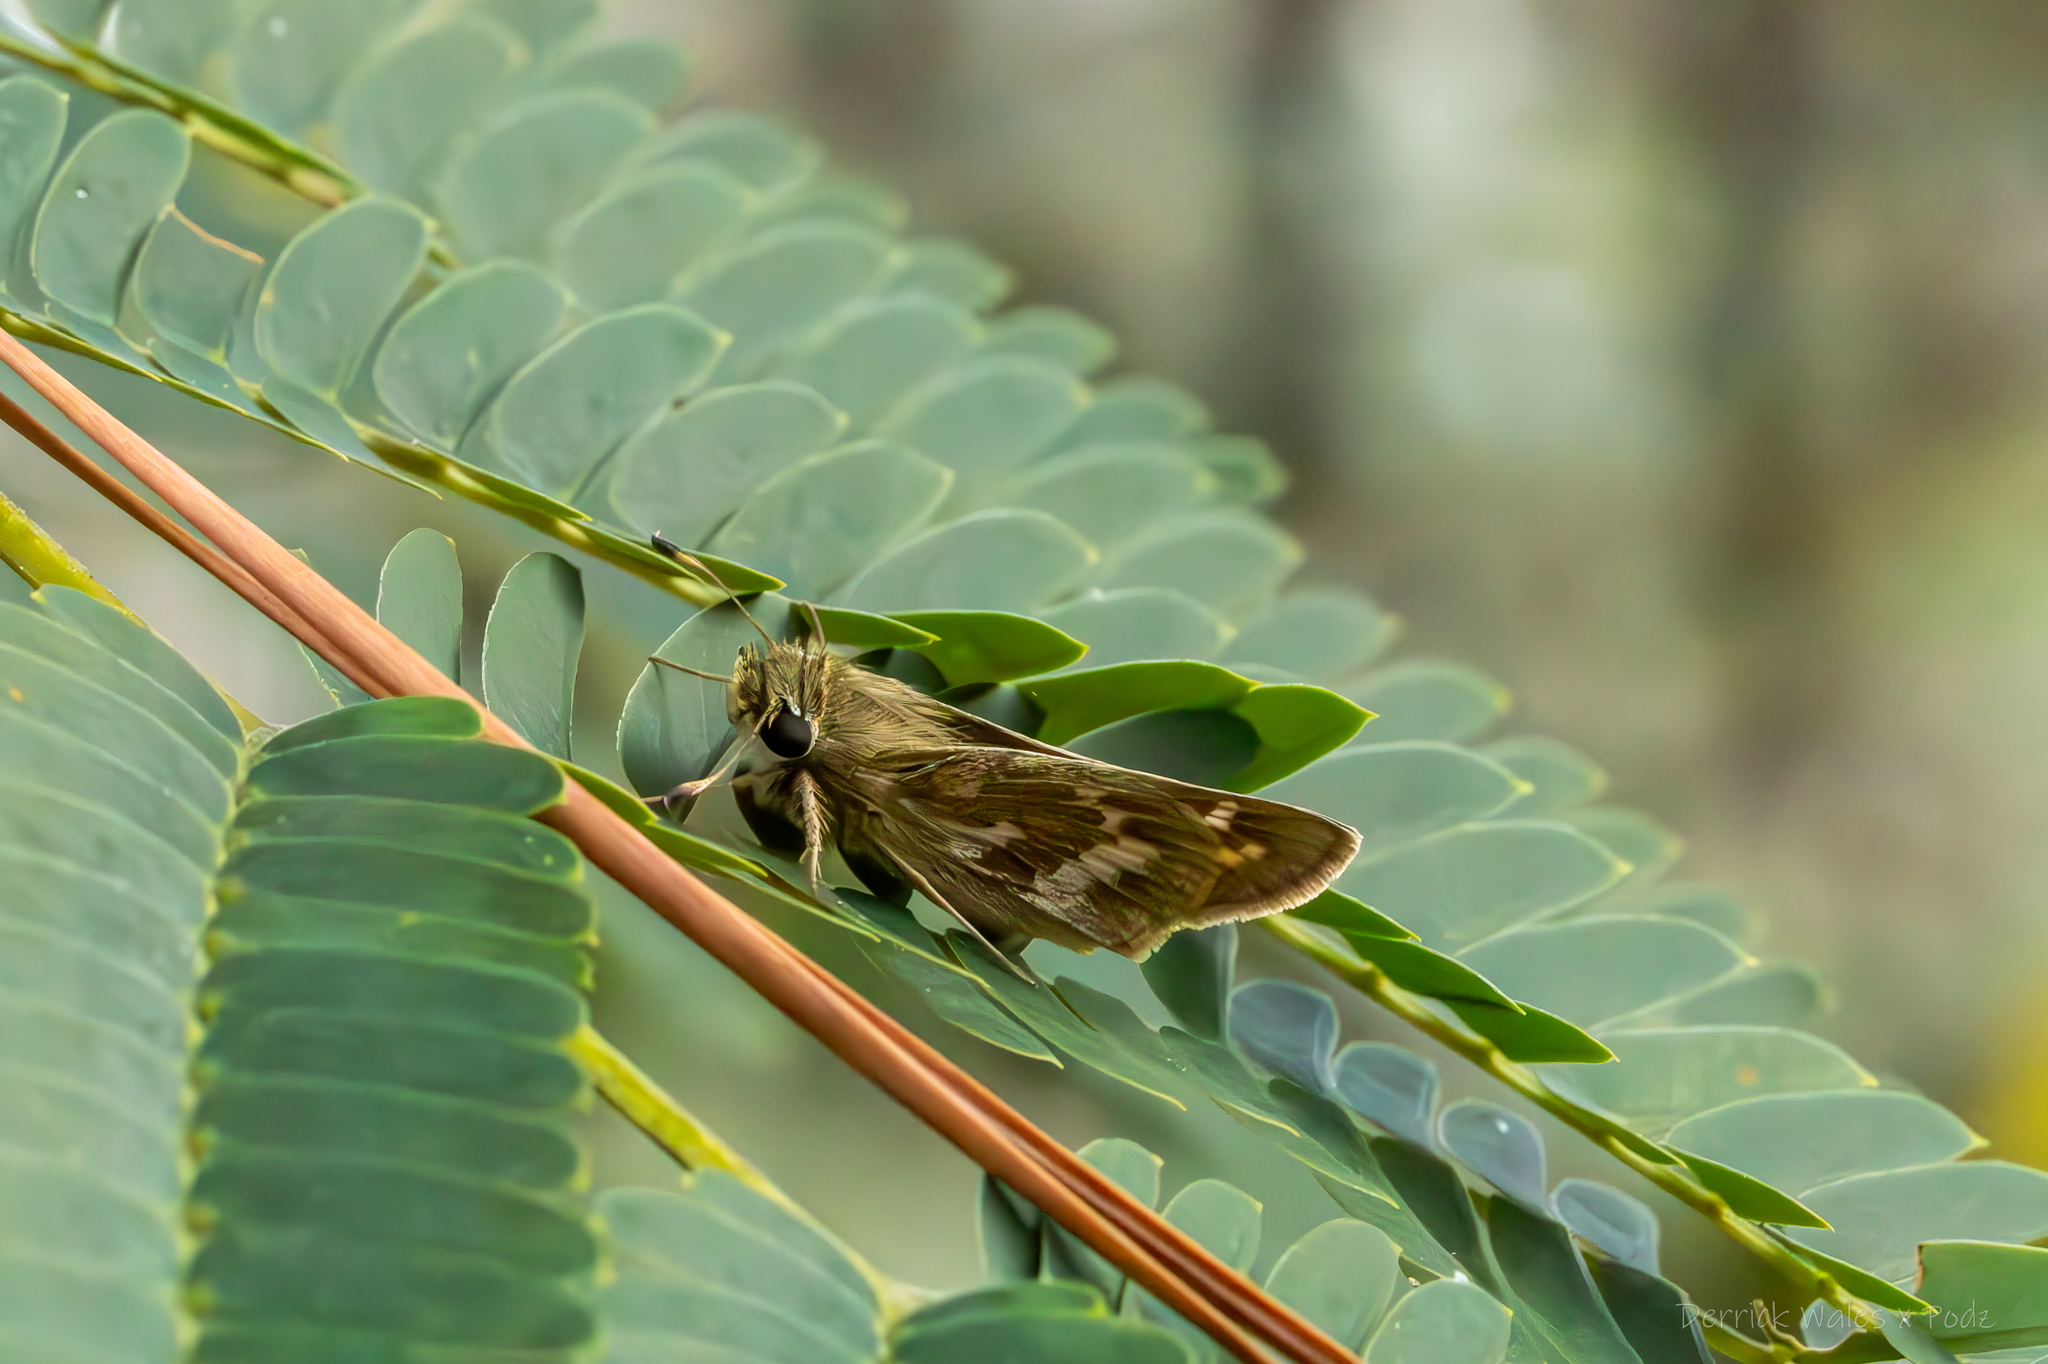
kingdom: Animalia
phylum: Arthropoda
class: Insecta
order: Lepidoptera
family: Hesperiidae
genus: Atalopedes
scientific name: Atalopedes
